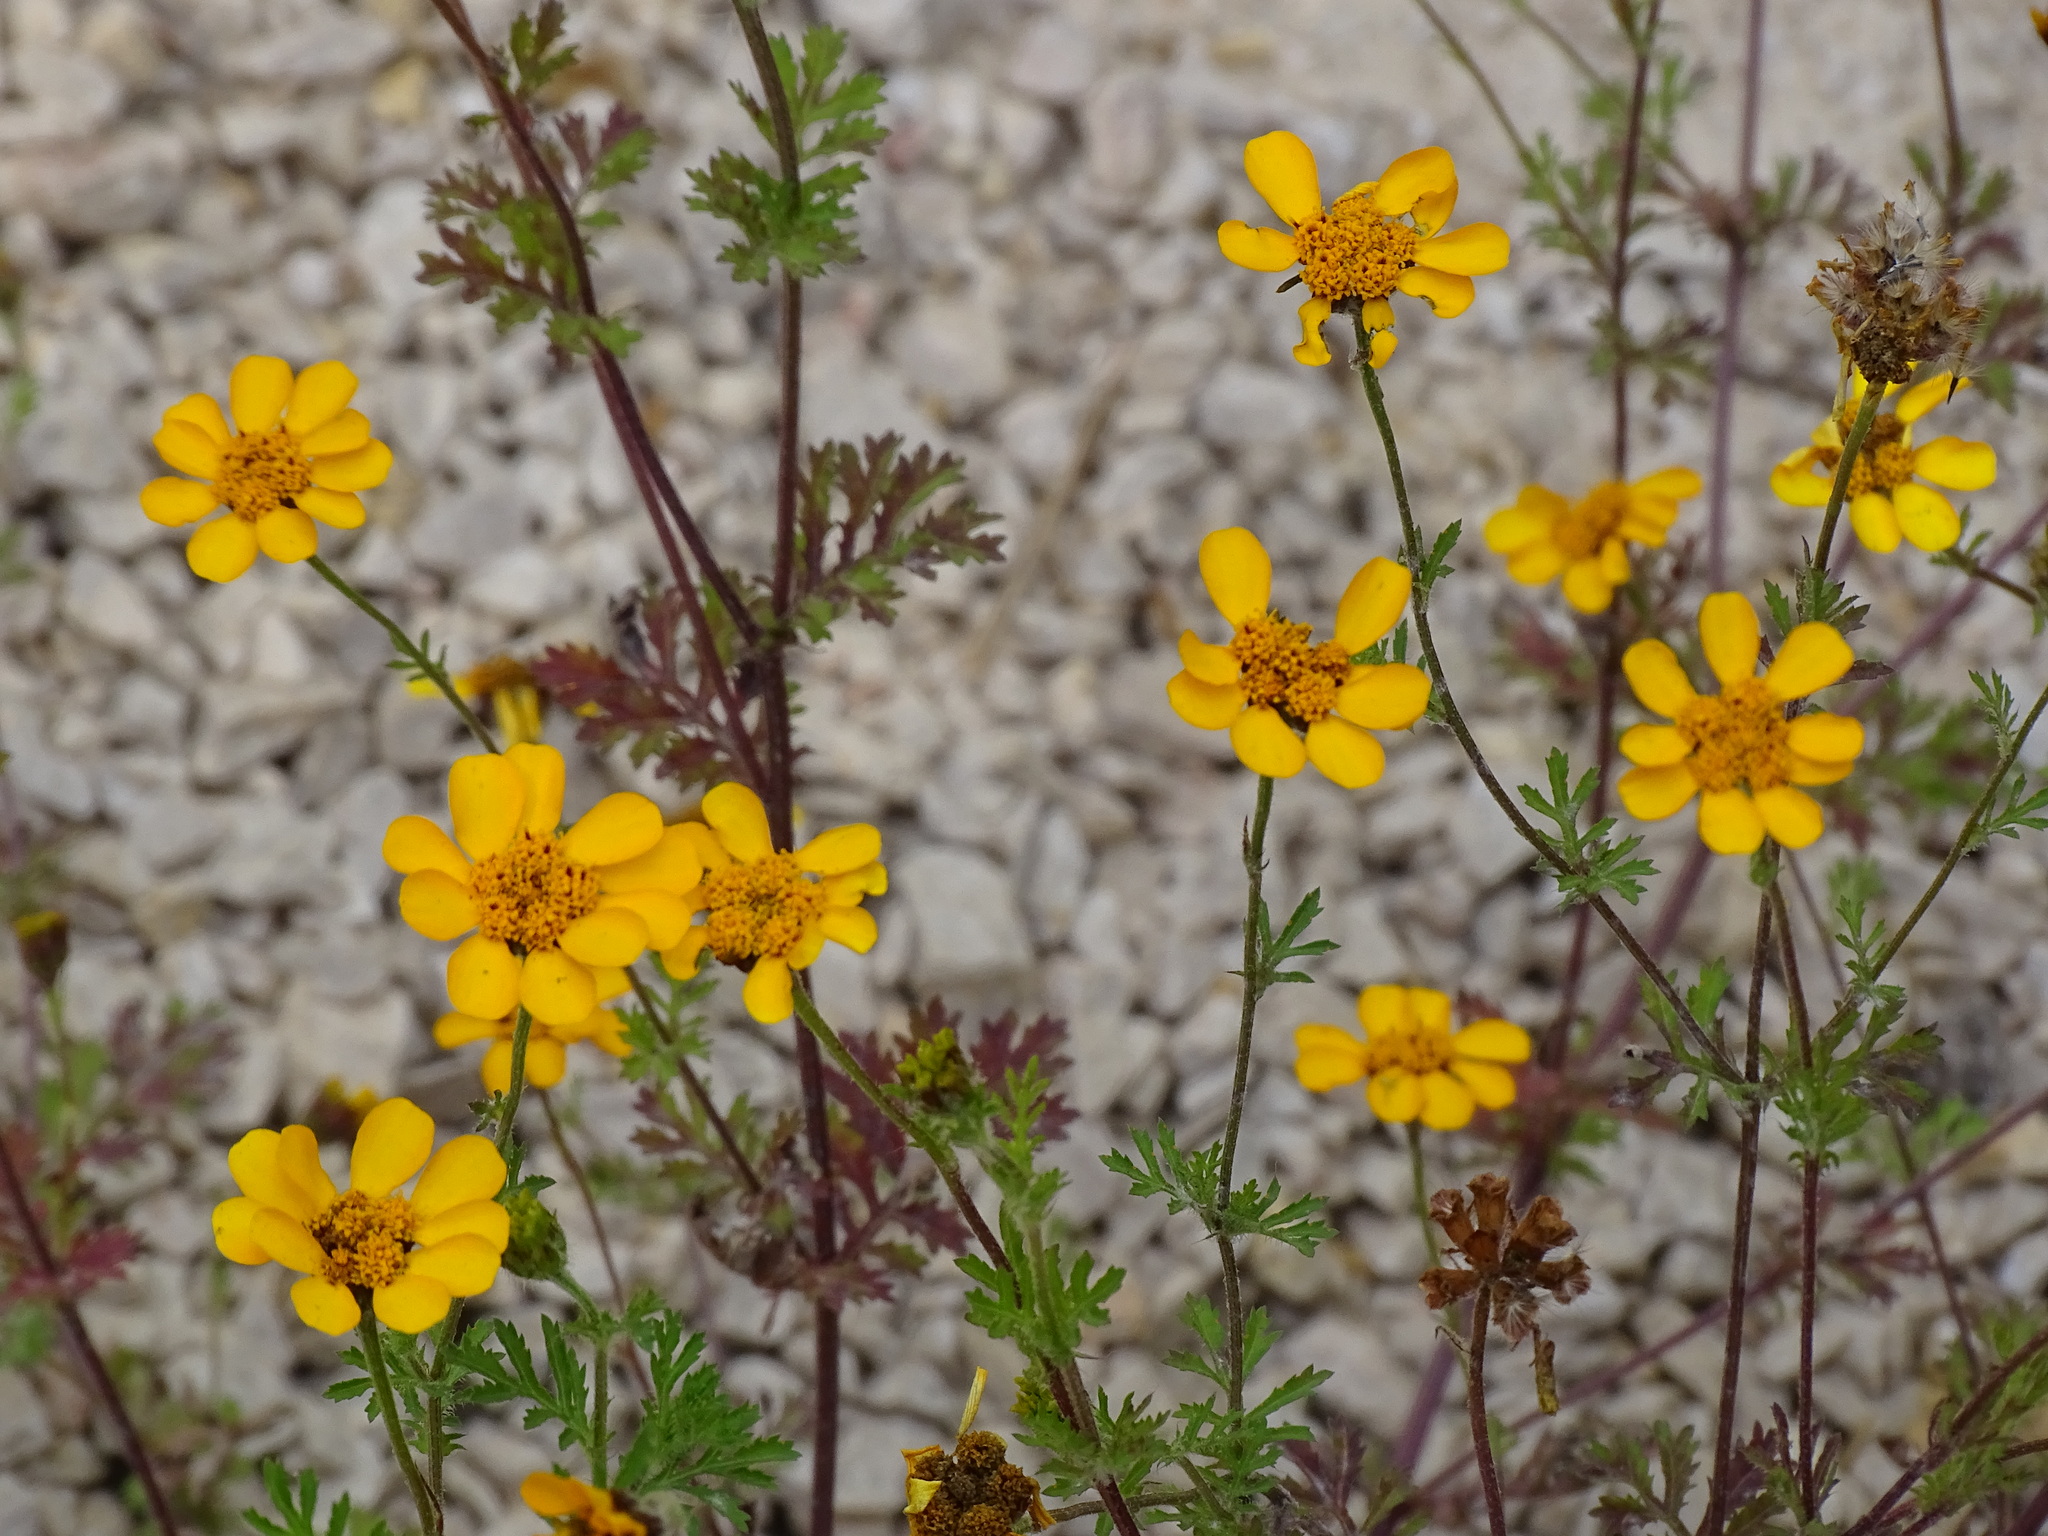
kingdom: Plantae
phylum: Tracheophyta
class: Magnoliopsida
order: Asterales
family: Asteraceae
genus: Dyssodia
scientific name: Dyssodia decipiens
